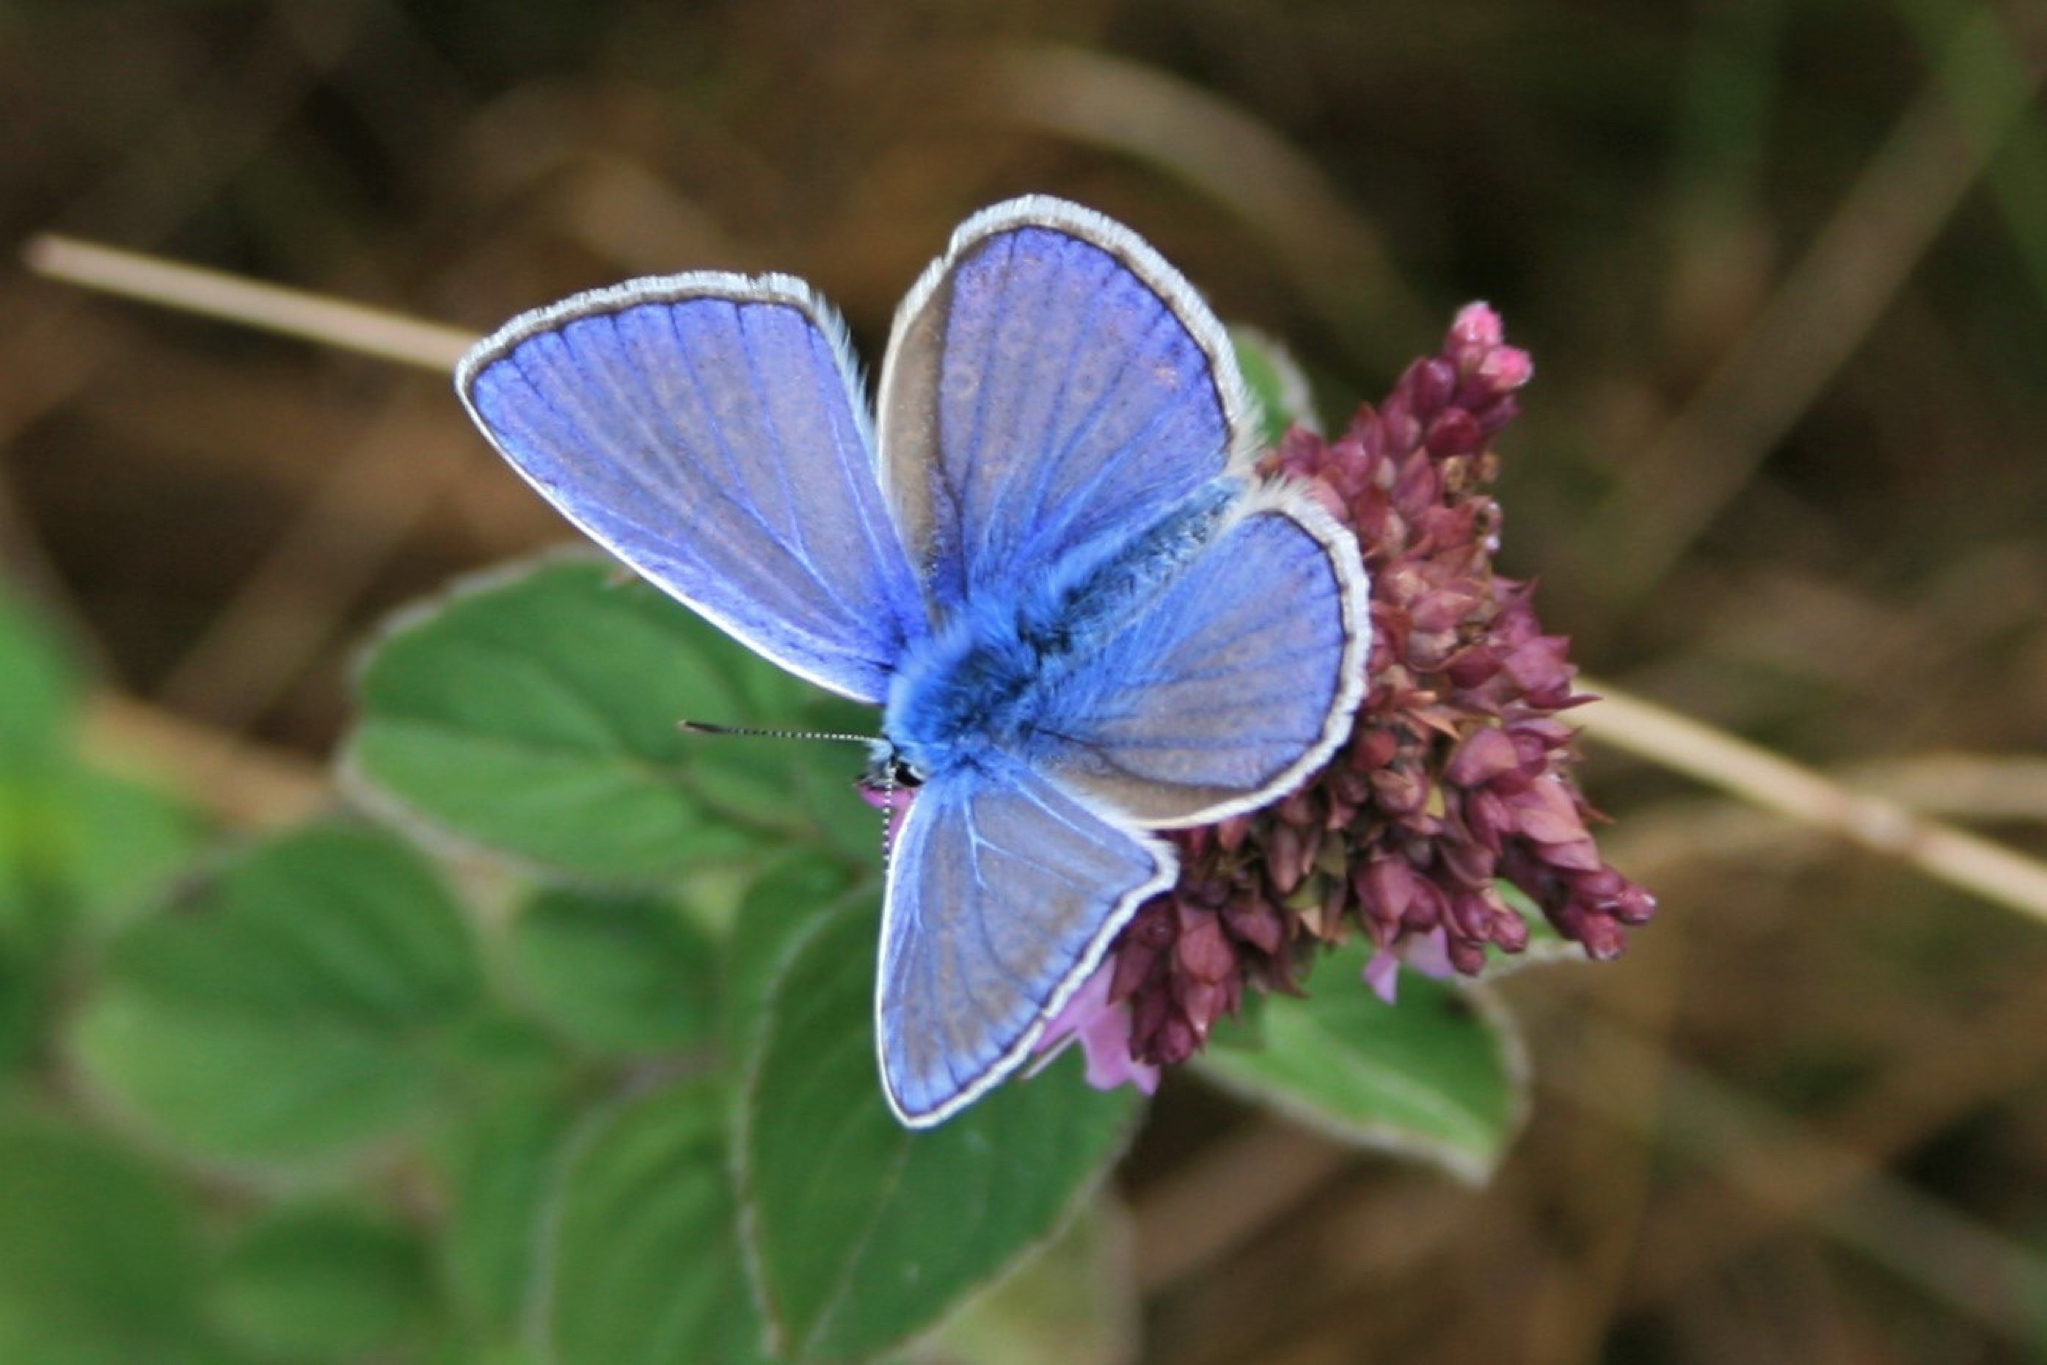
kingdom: Animalia
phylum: Arthropoda
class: Insecta
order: Lepidoptera
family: Lycaenidae
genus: Polyommatus
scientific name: Polyommatus icarus
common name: Common blue
